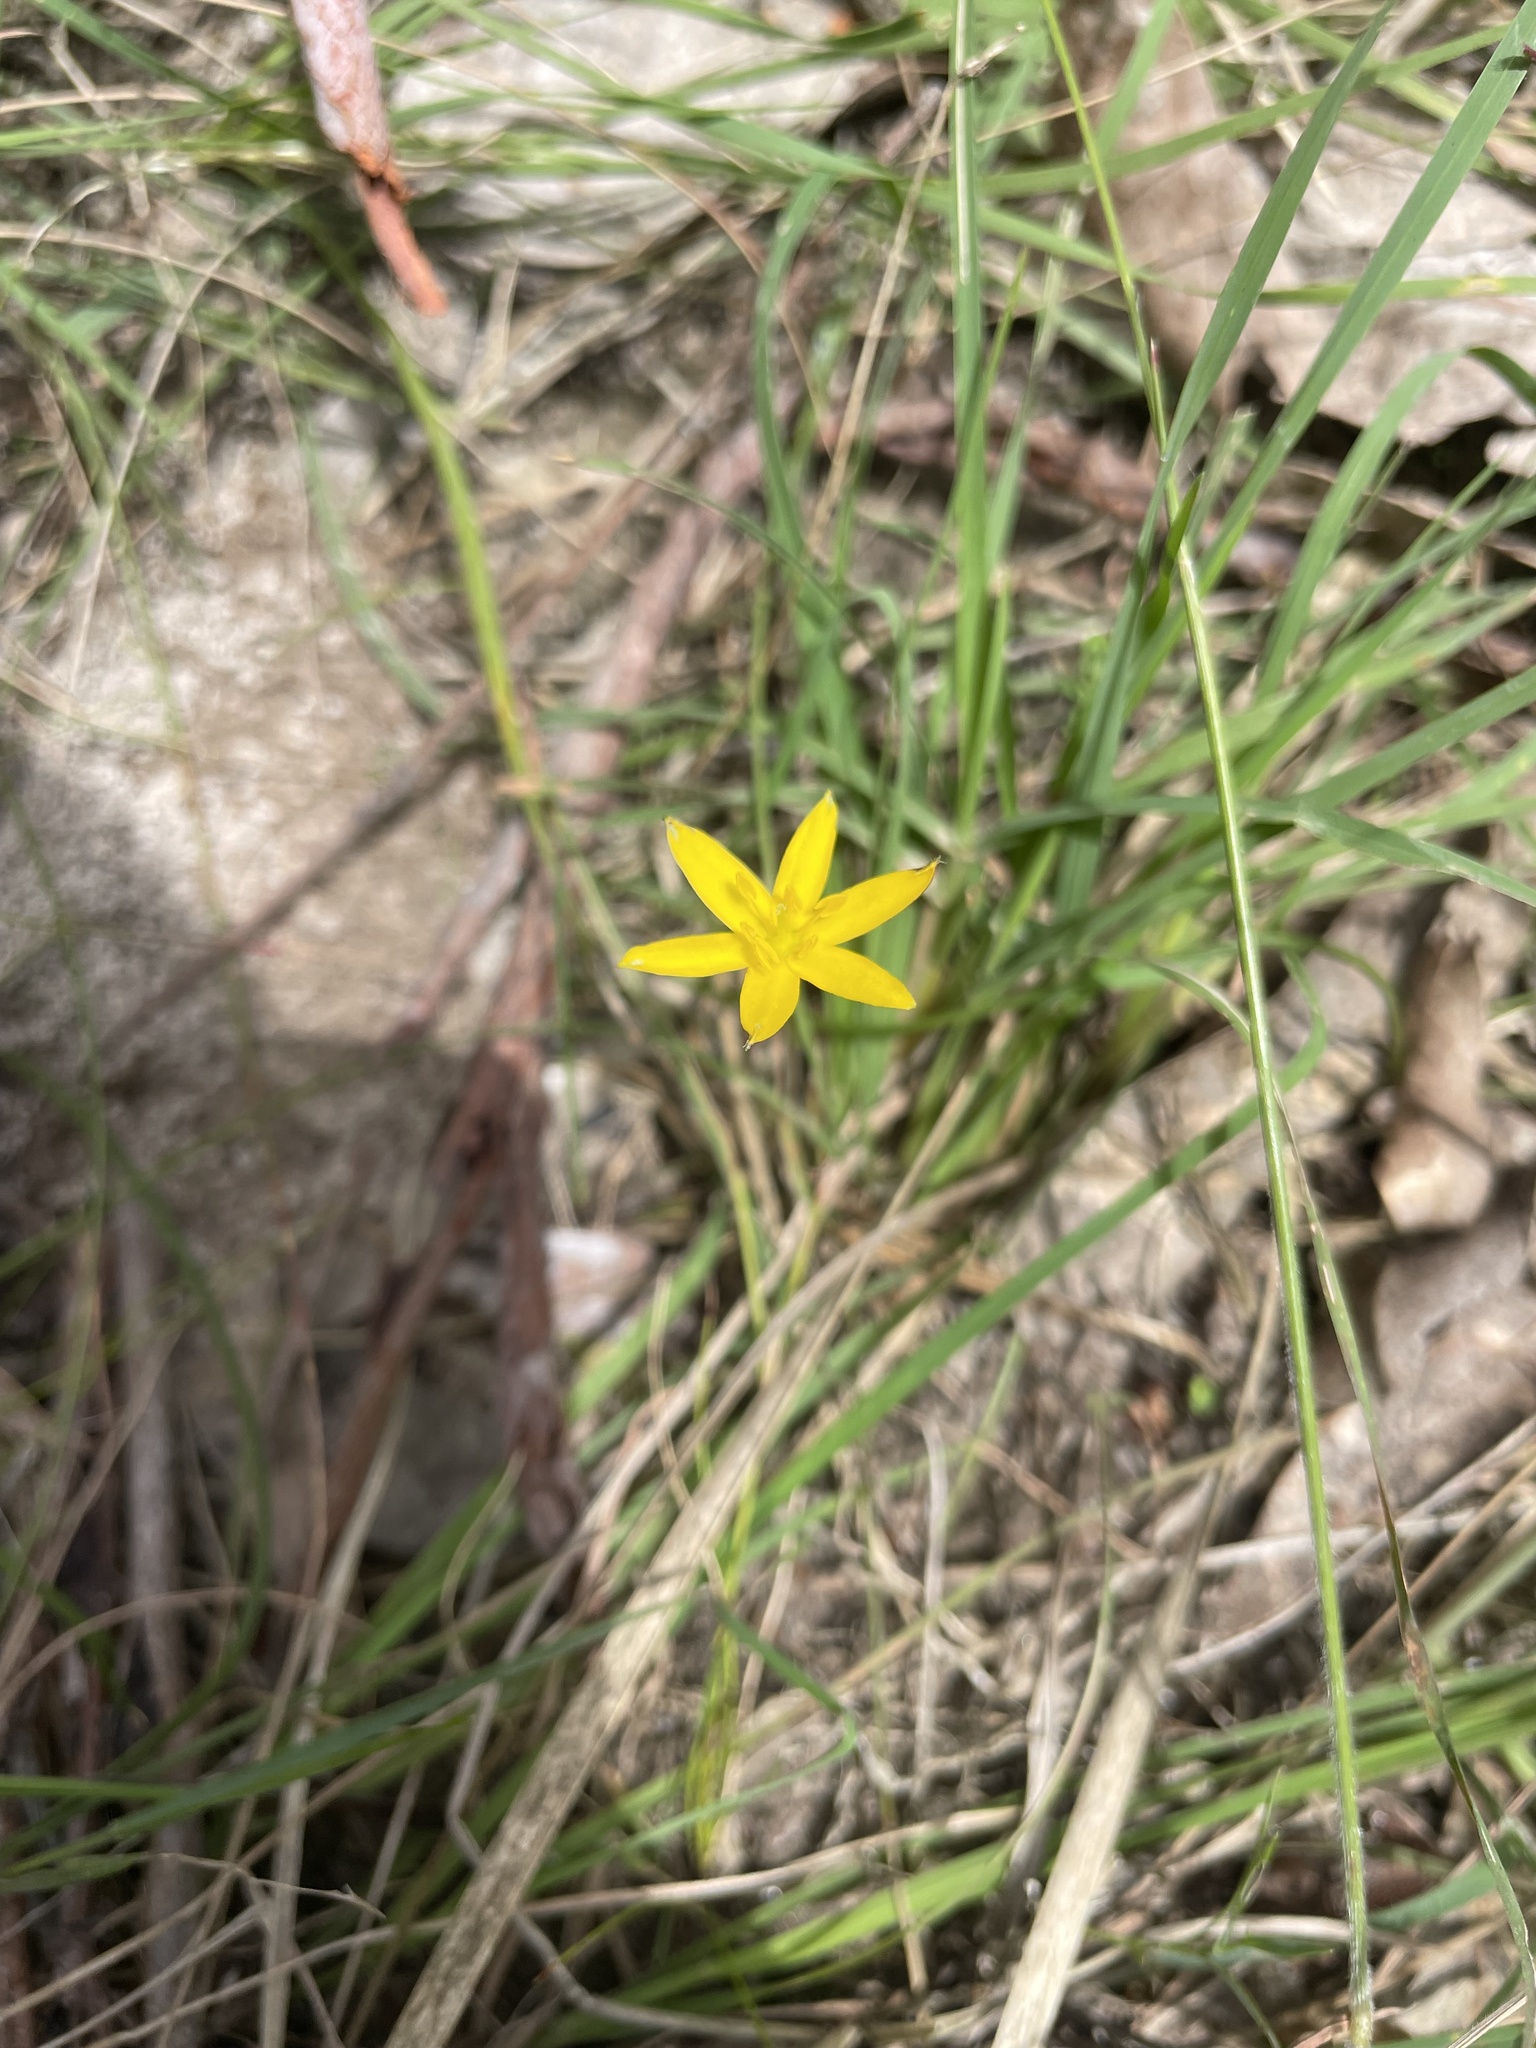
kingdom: Plantae
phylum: Tracheophyta
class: Liliopsida
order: Asparagales
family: Hypoxidaceae
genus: Hypoxis
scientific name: Hypoxis hygrometrica
